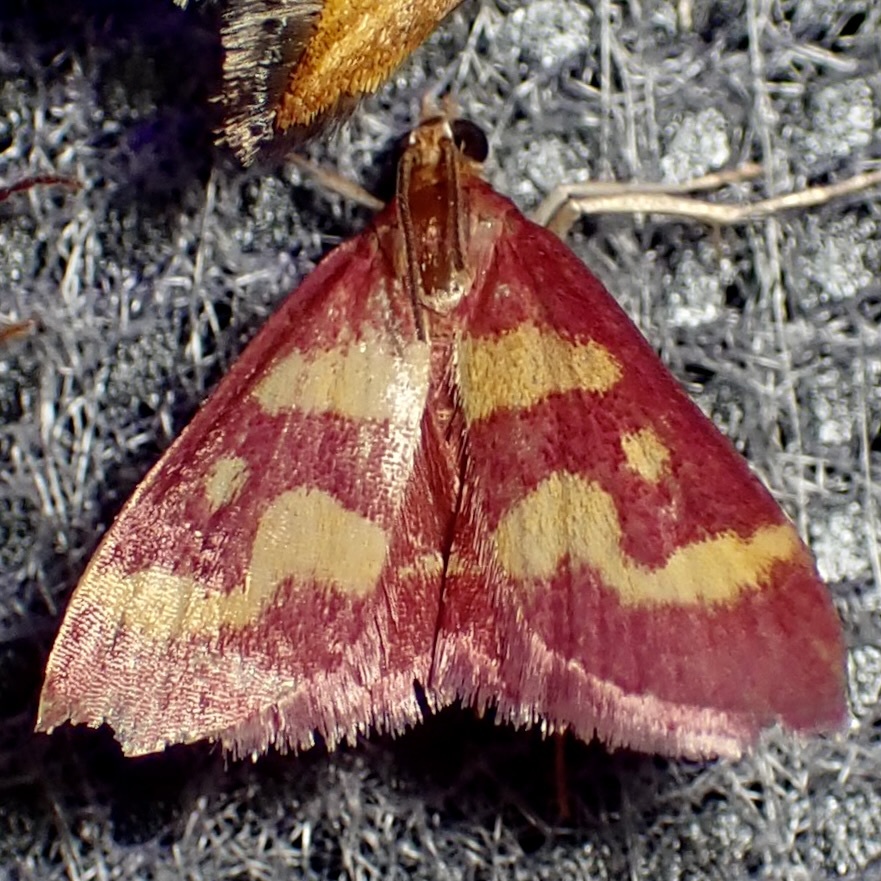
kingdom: Animalia
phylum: Arthropoda
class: Insecta
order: Lepidoptera
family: Crambidae
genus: Pyrausta
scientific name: Pyrausta tyralis
